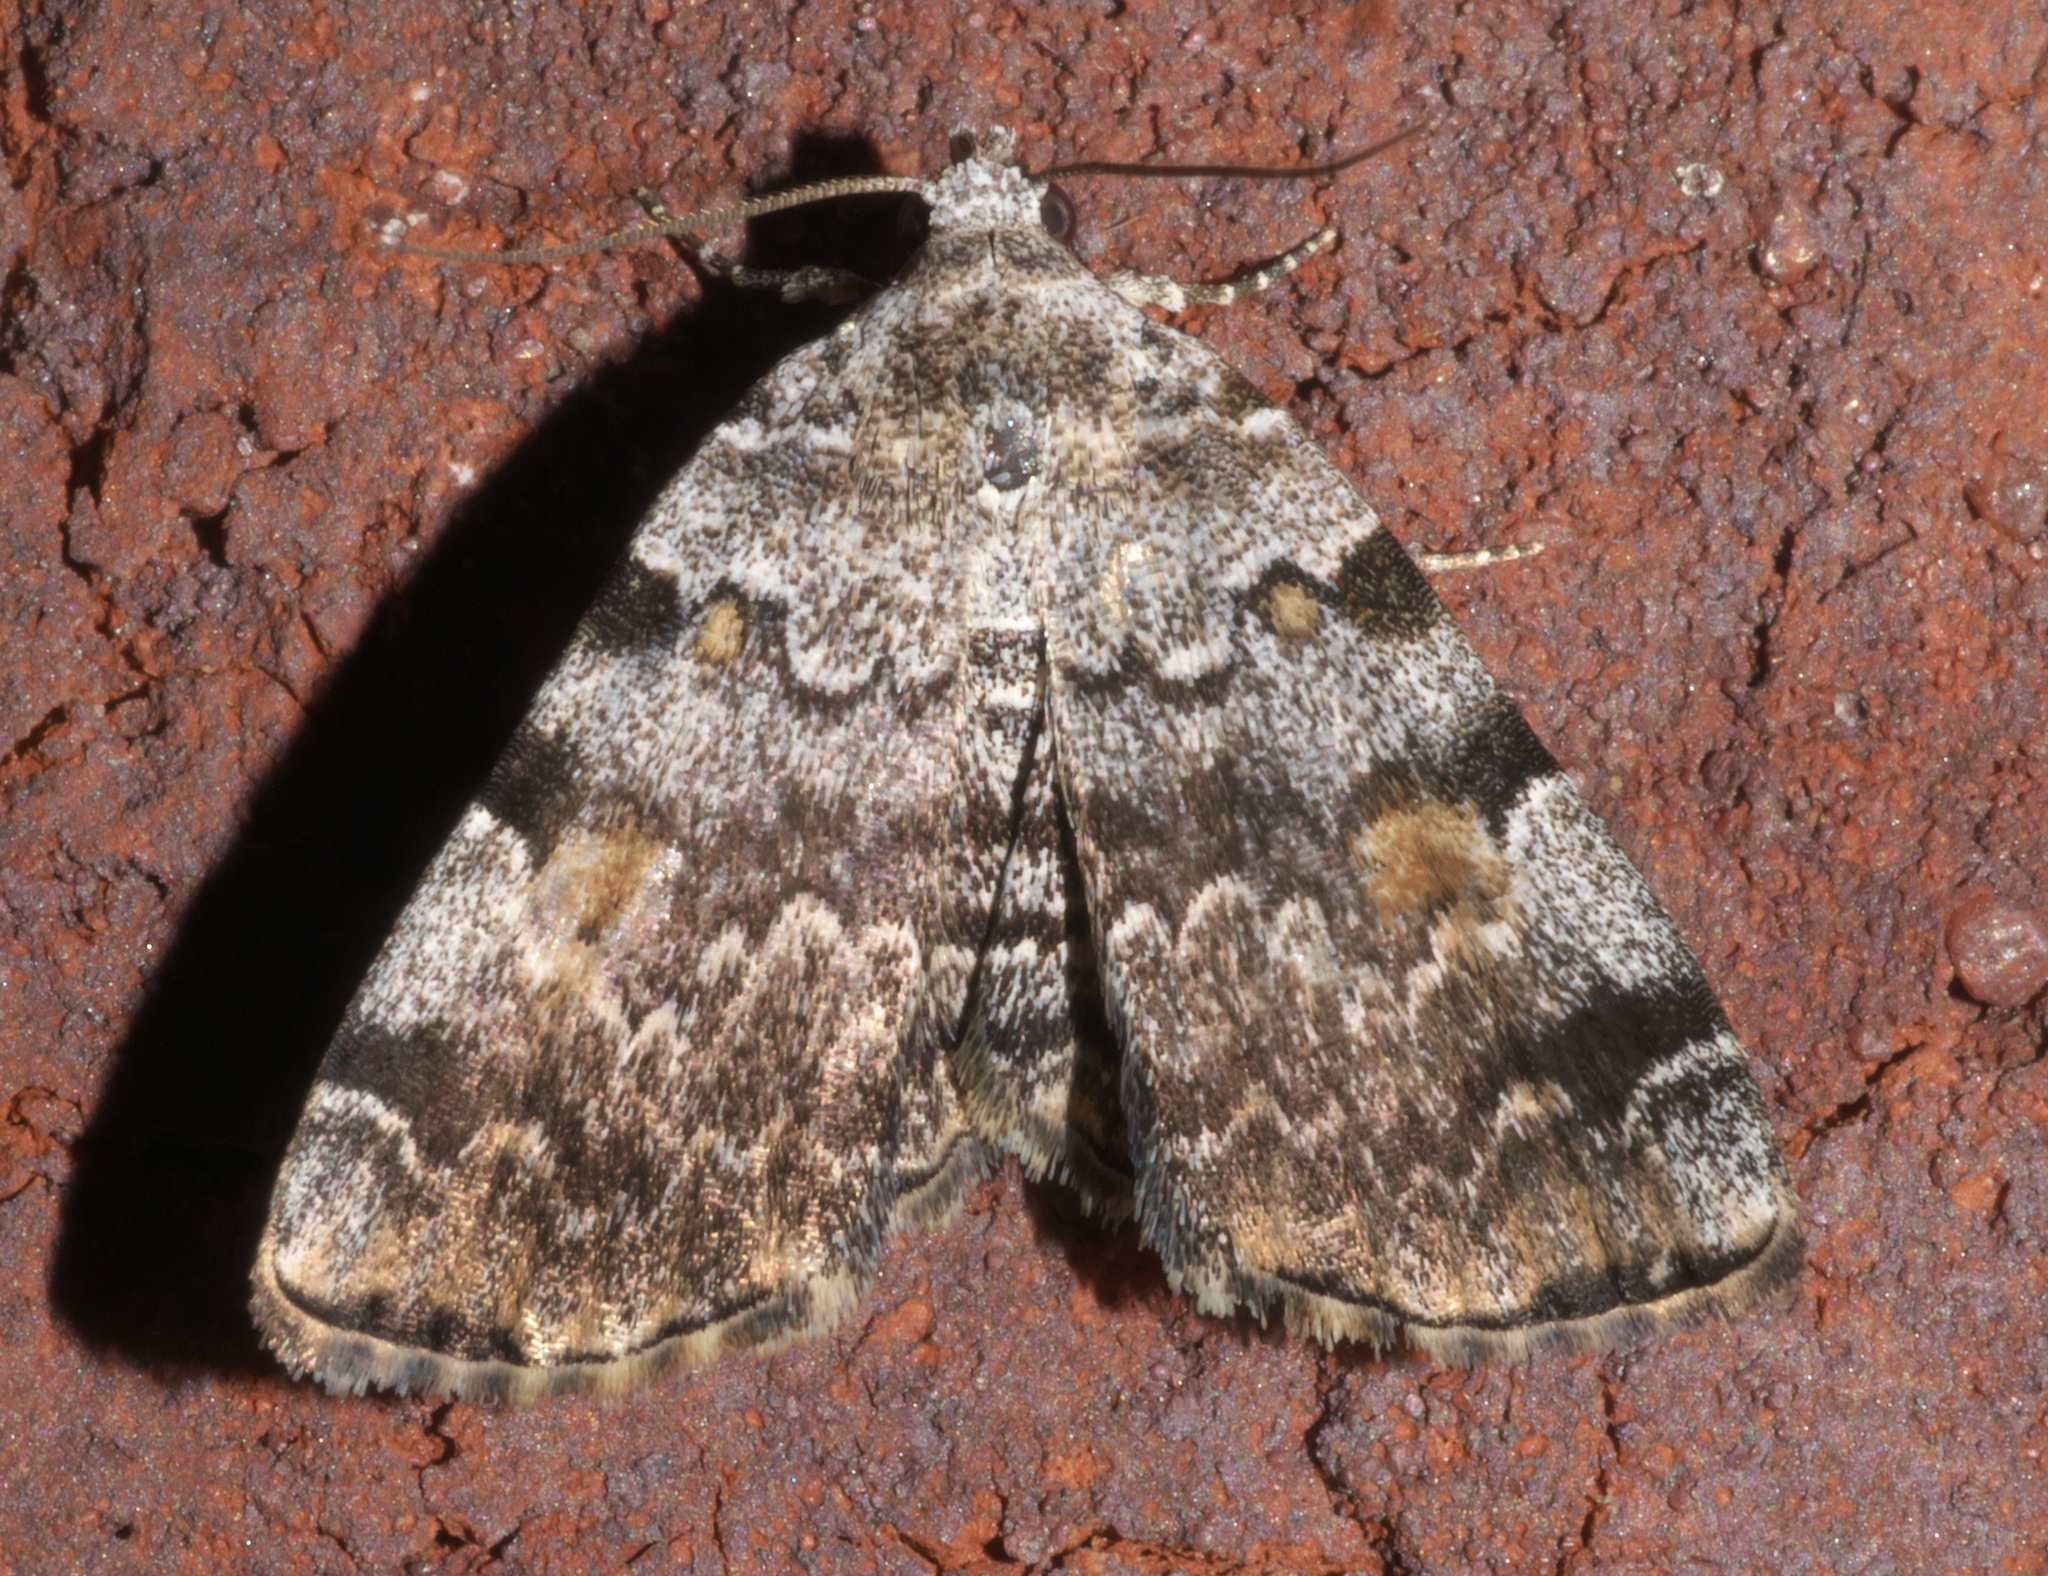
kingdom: Animalia
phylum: Arthropoda
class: Insecta
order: Lepidoptera
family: Erebidae
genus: Idia
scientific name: Idia americalis
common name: American idia moth
